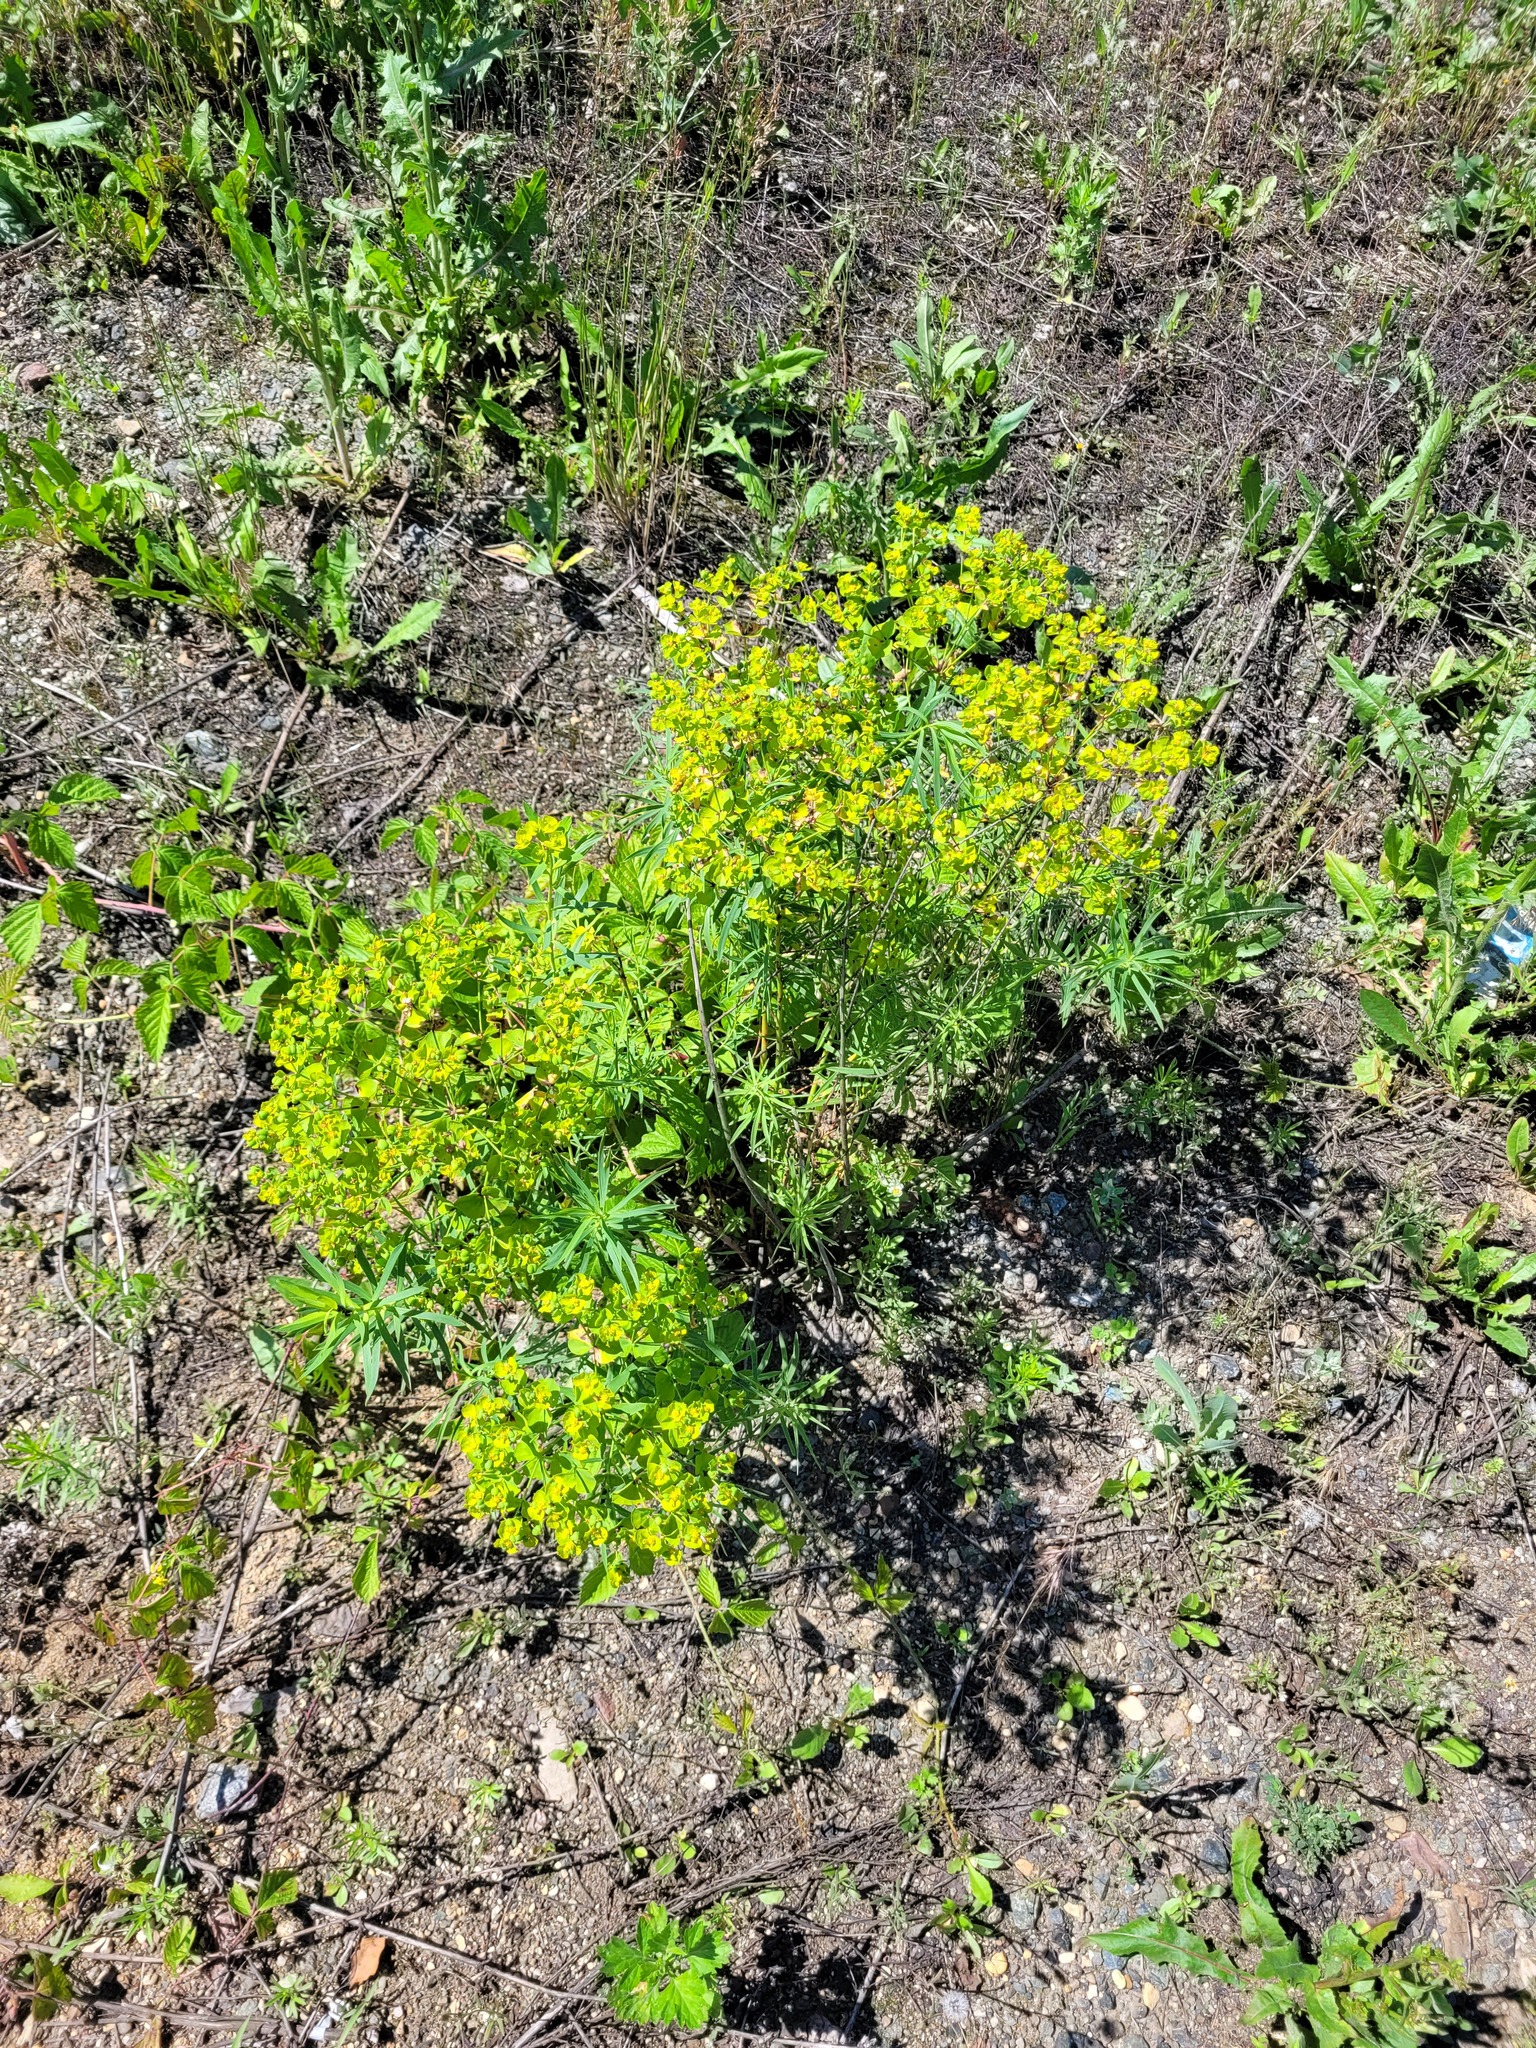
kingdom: Plantae
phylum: Tracheophyta
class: Magnoliopsida
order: Malpighiales
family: Euphorbiaceae
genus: Euphorbia
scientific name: Euphorbia virgata
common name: Leafy spurge
